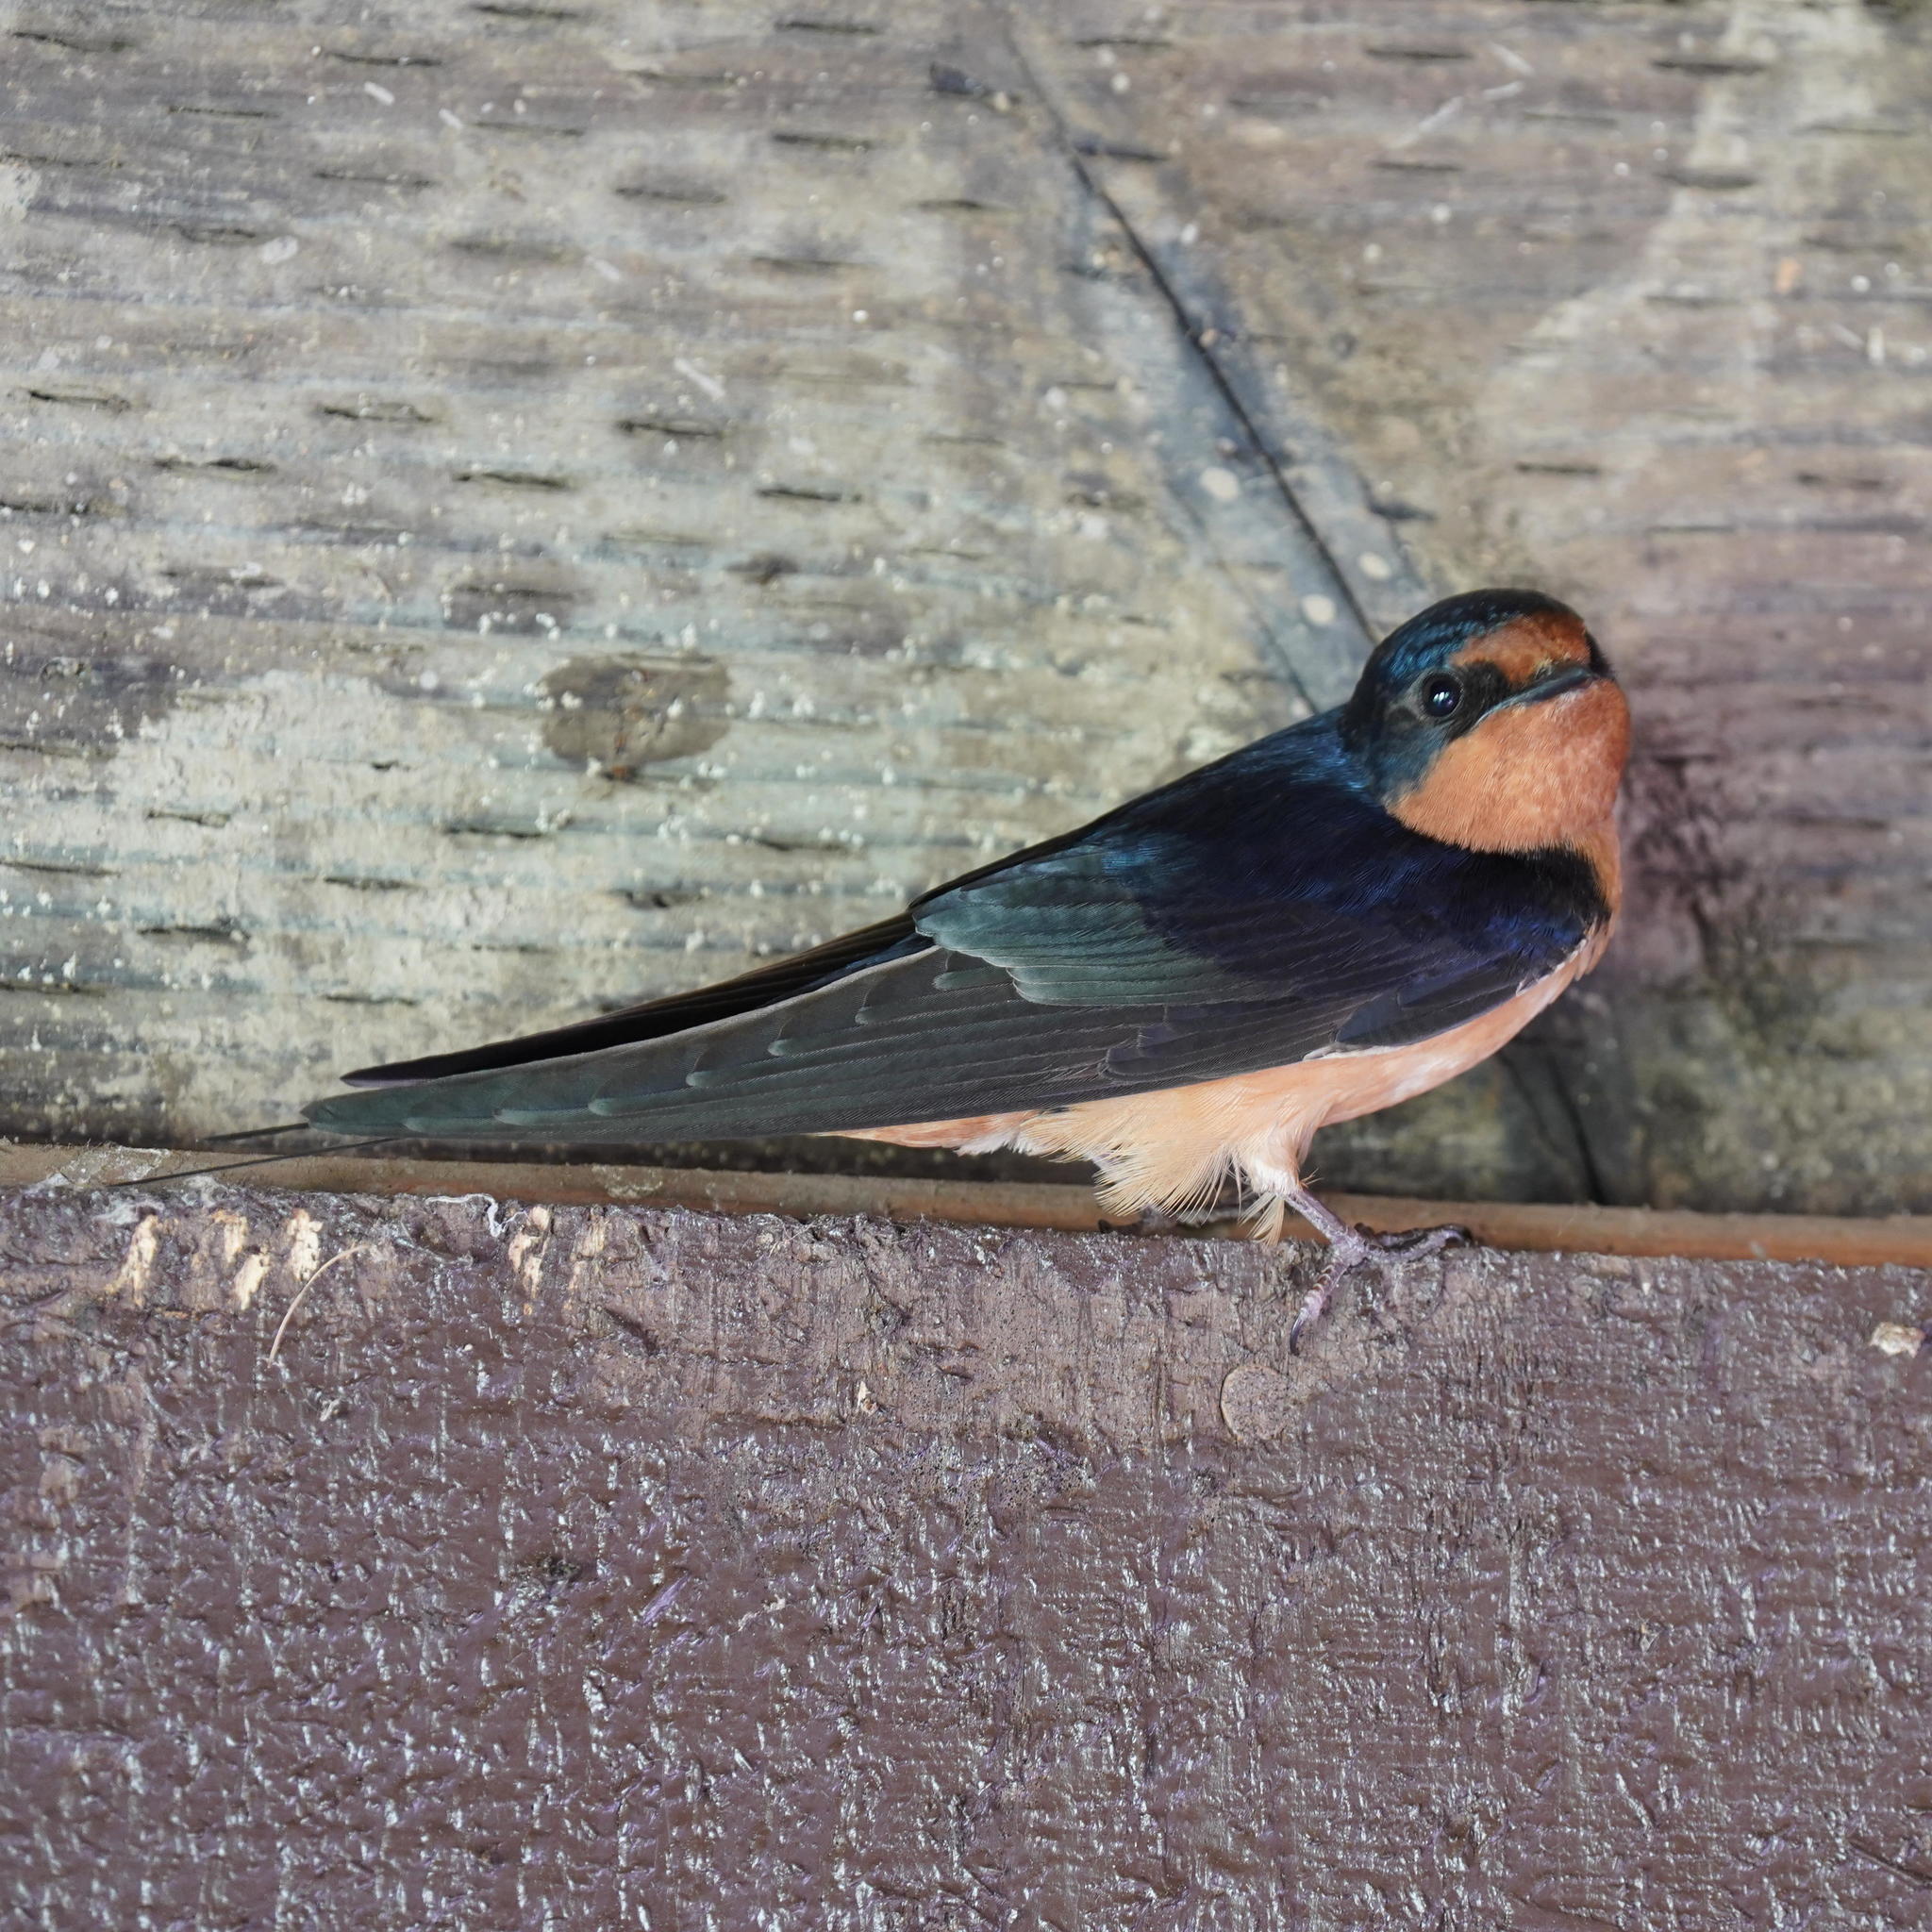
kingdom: Animalia
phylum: Chordata
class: Aves
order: Passeriformes
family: Hirundinidae
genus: Hirundo
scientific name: Hirundo rustica
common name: Barn swallow
